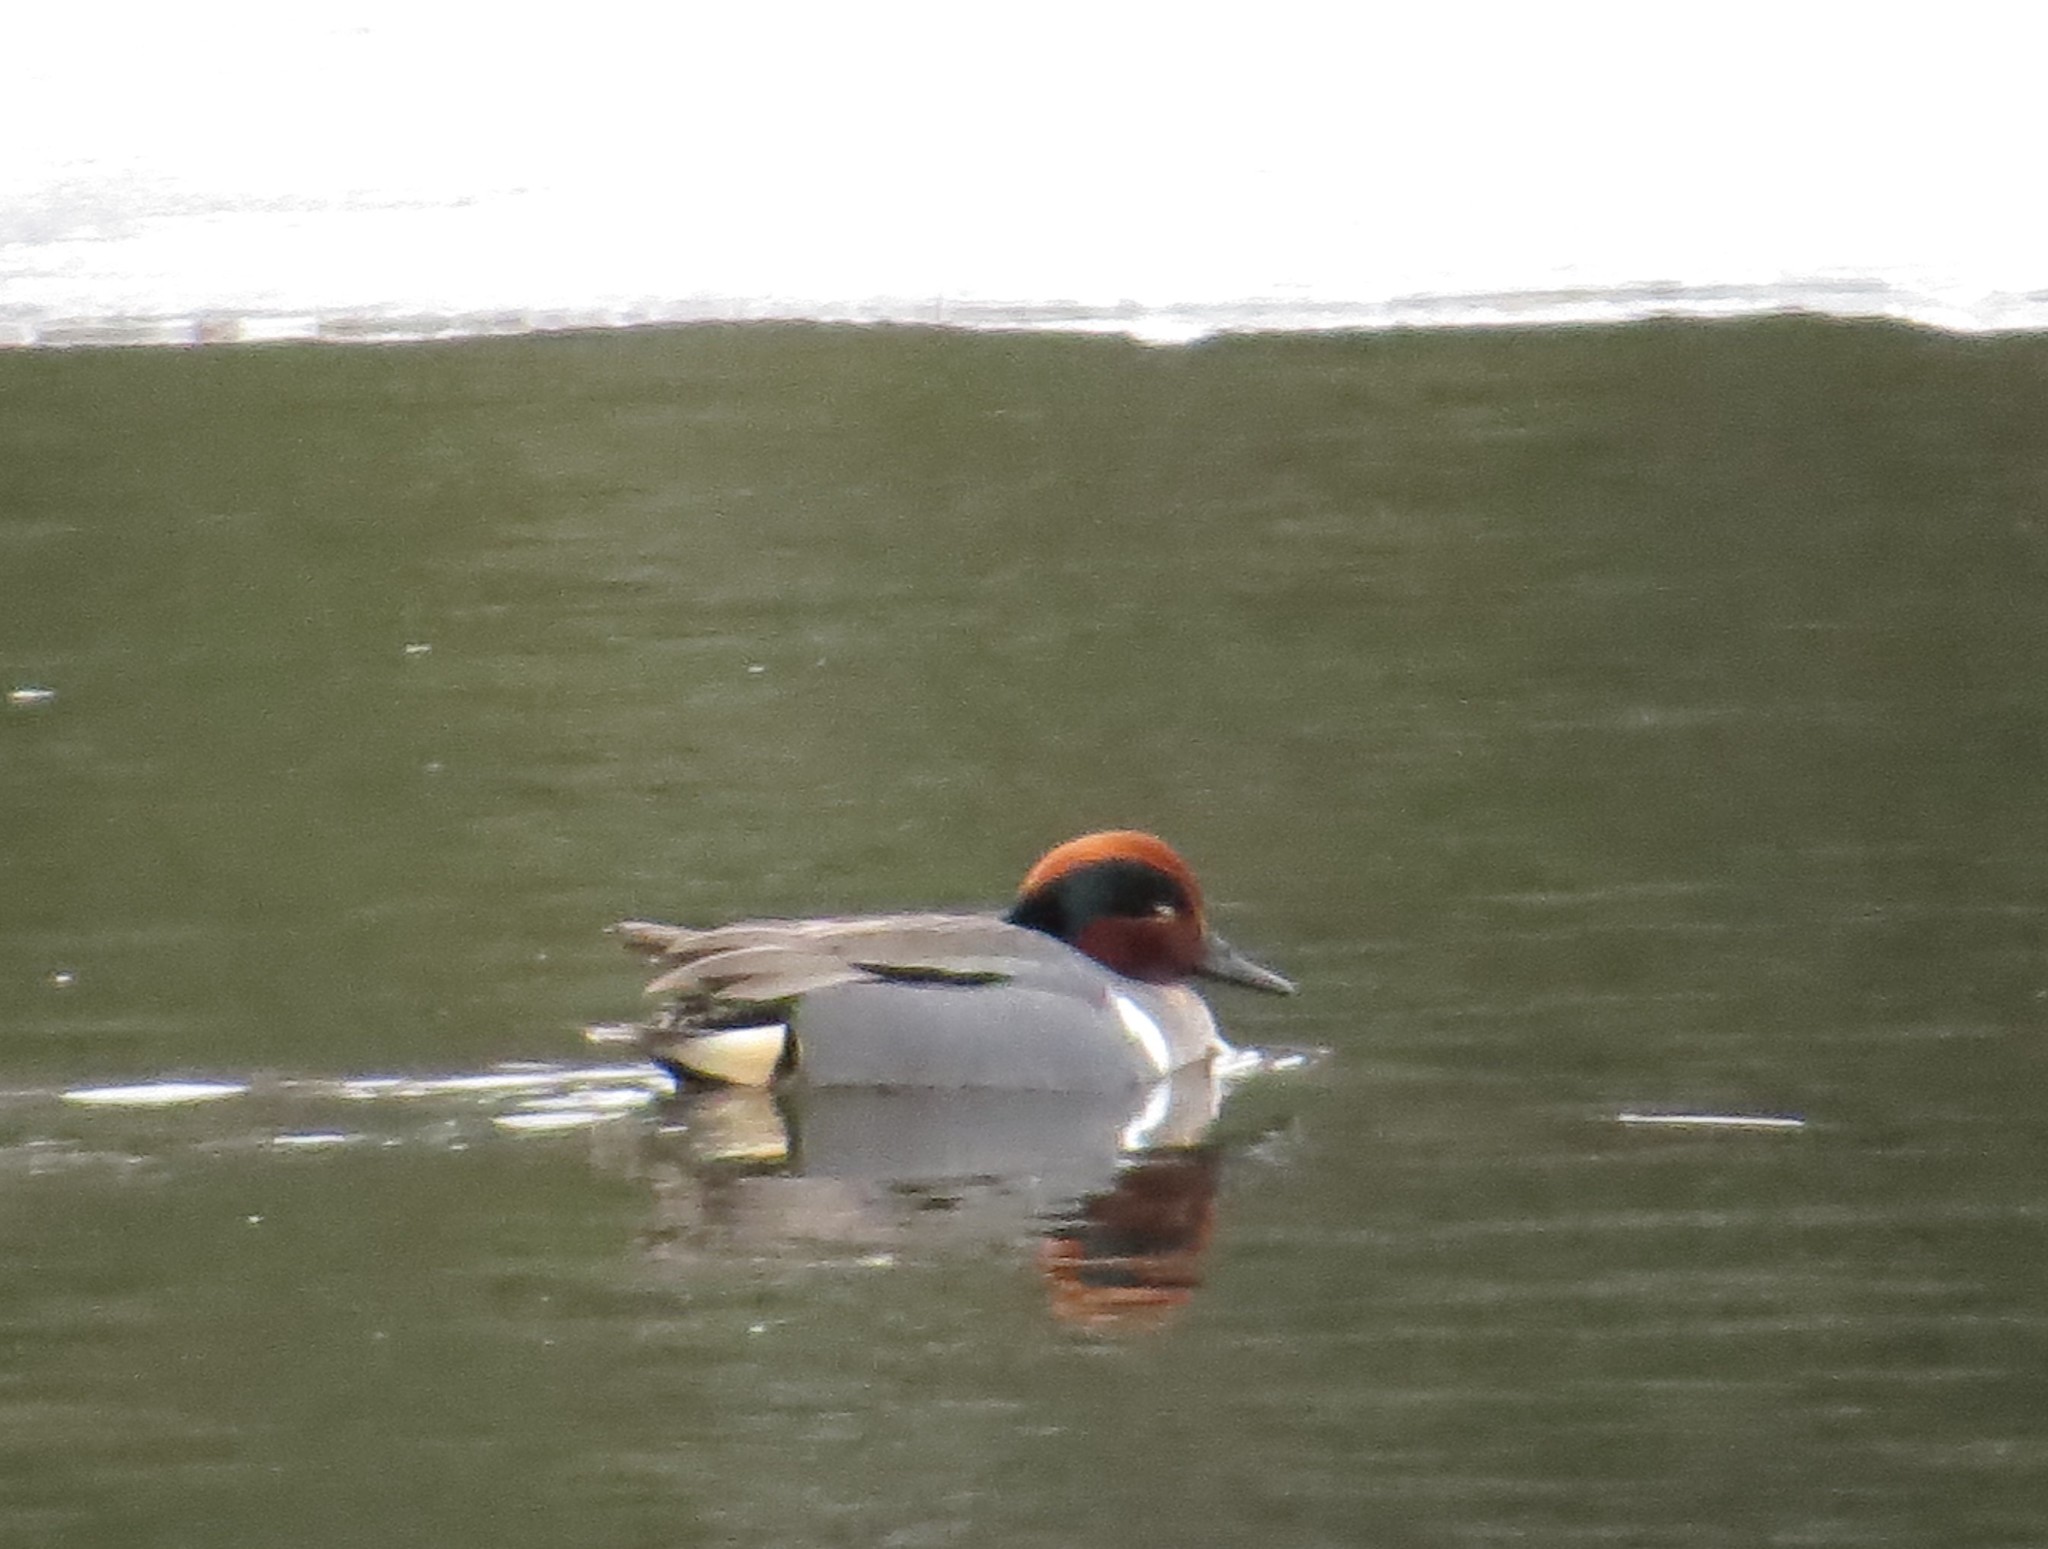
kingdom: Animalia
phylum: Chordata
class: Aves
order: Anseriformes
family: Anatidae
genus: Anas
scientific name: Anas crecca
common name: Eurasian teal
